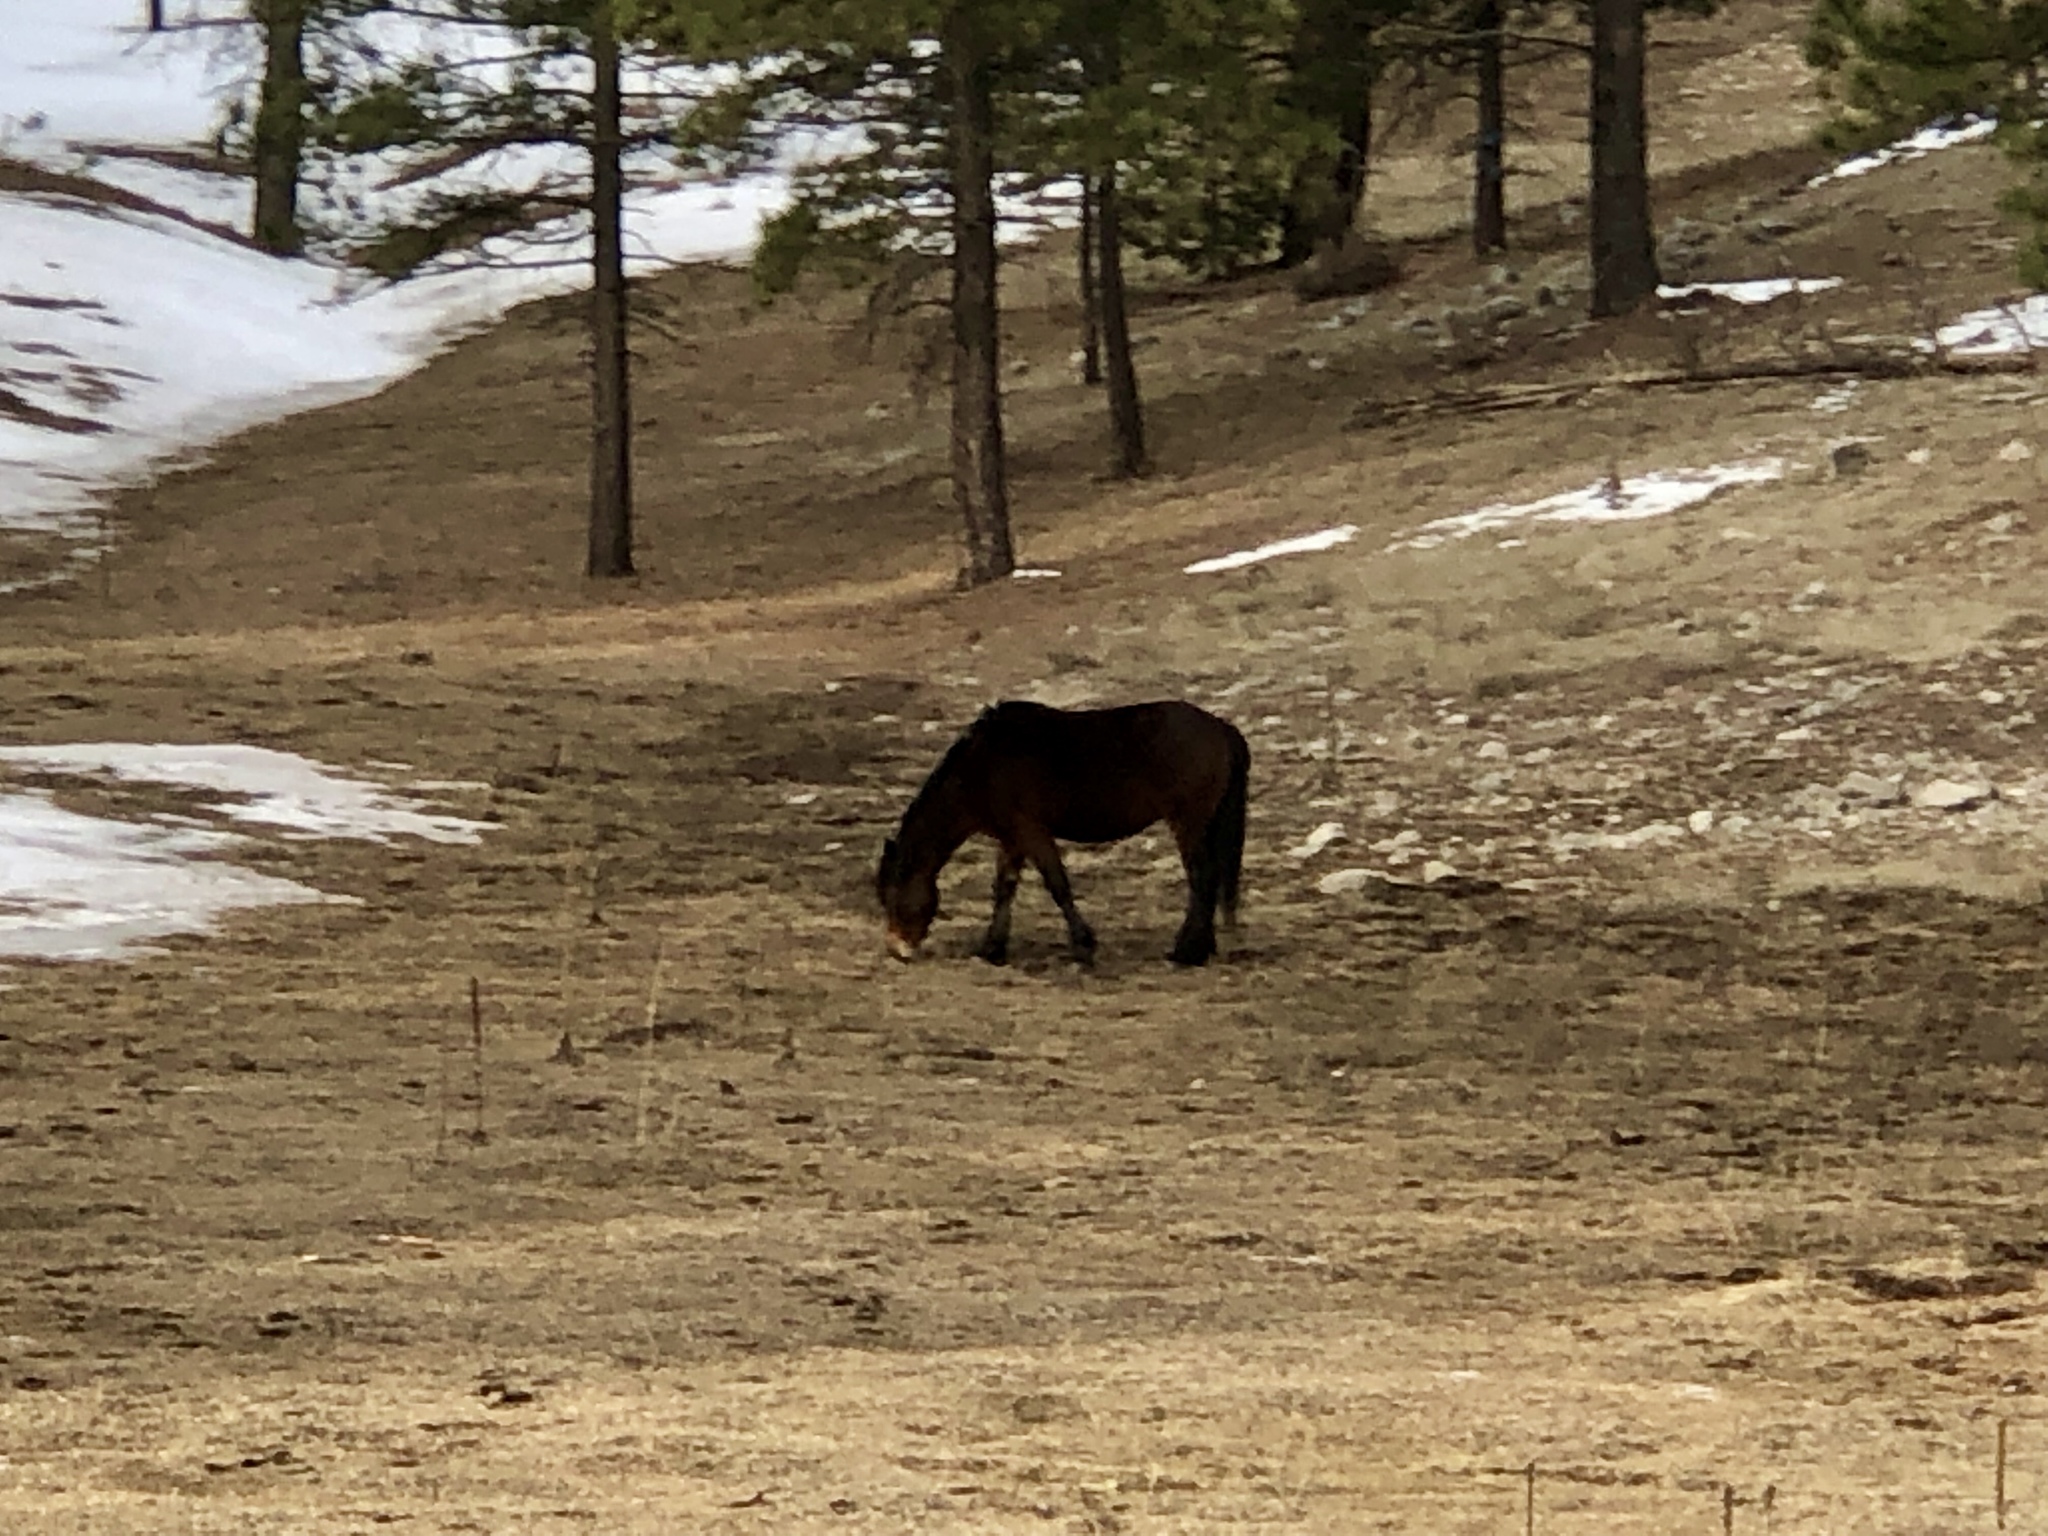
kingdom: Animalia
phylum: Chordata
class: Mammalia
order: Perissodactyla
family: Equidae
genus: Equus
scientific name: Equus caballus
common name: Horse
